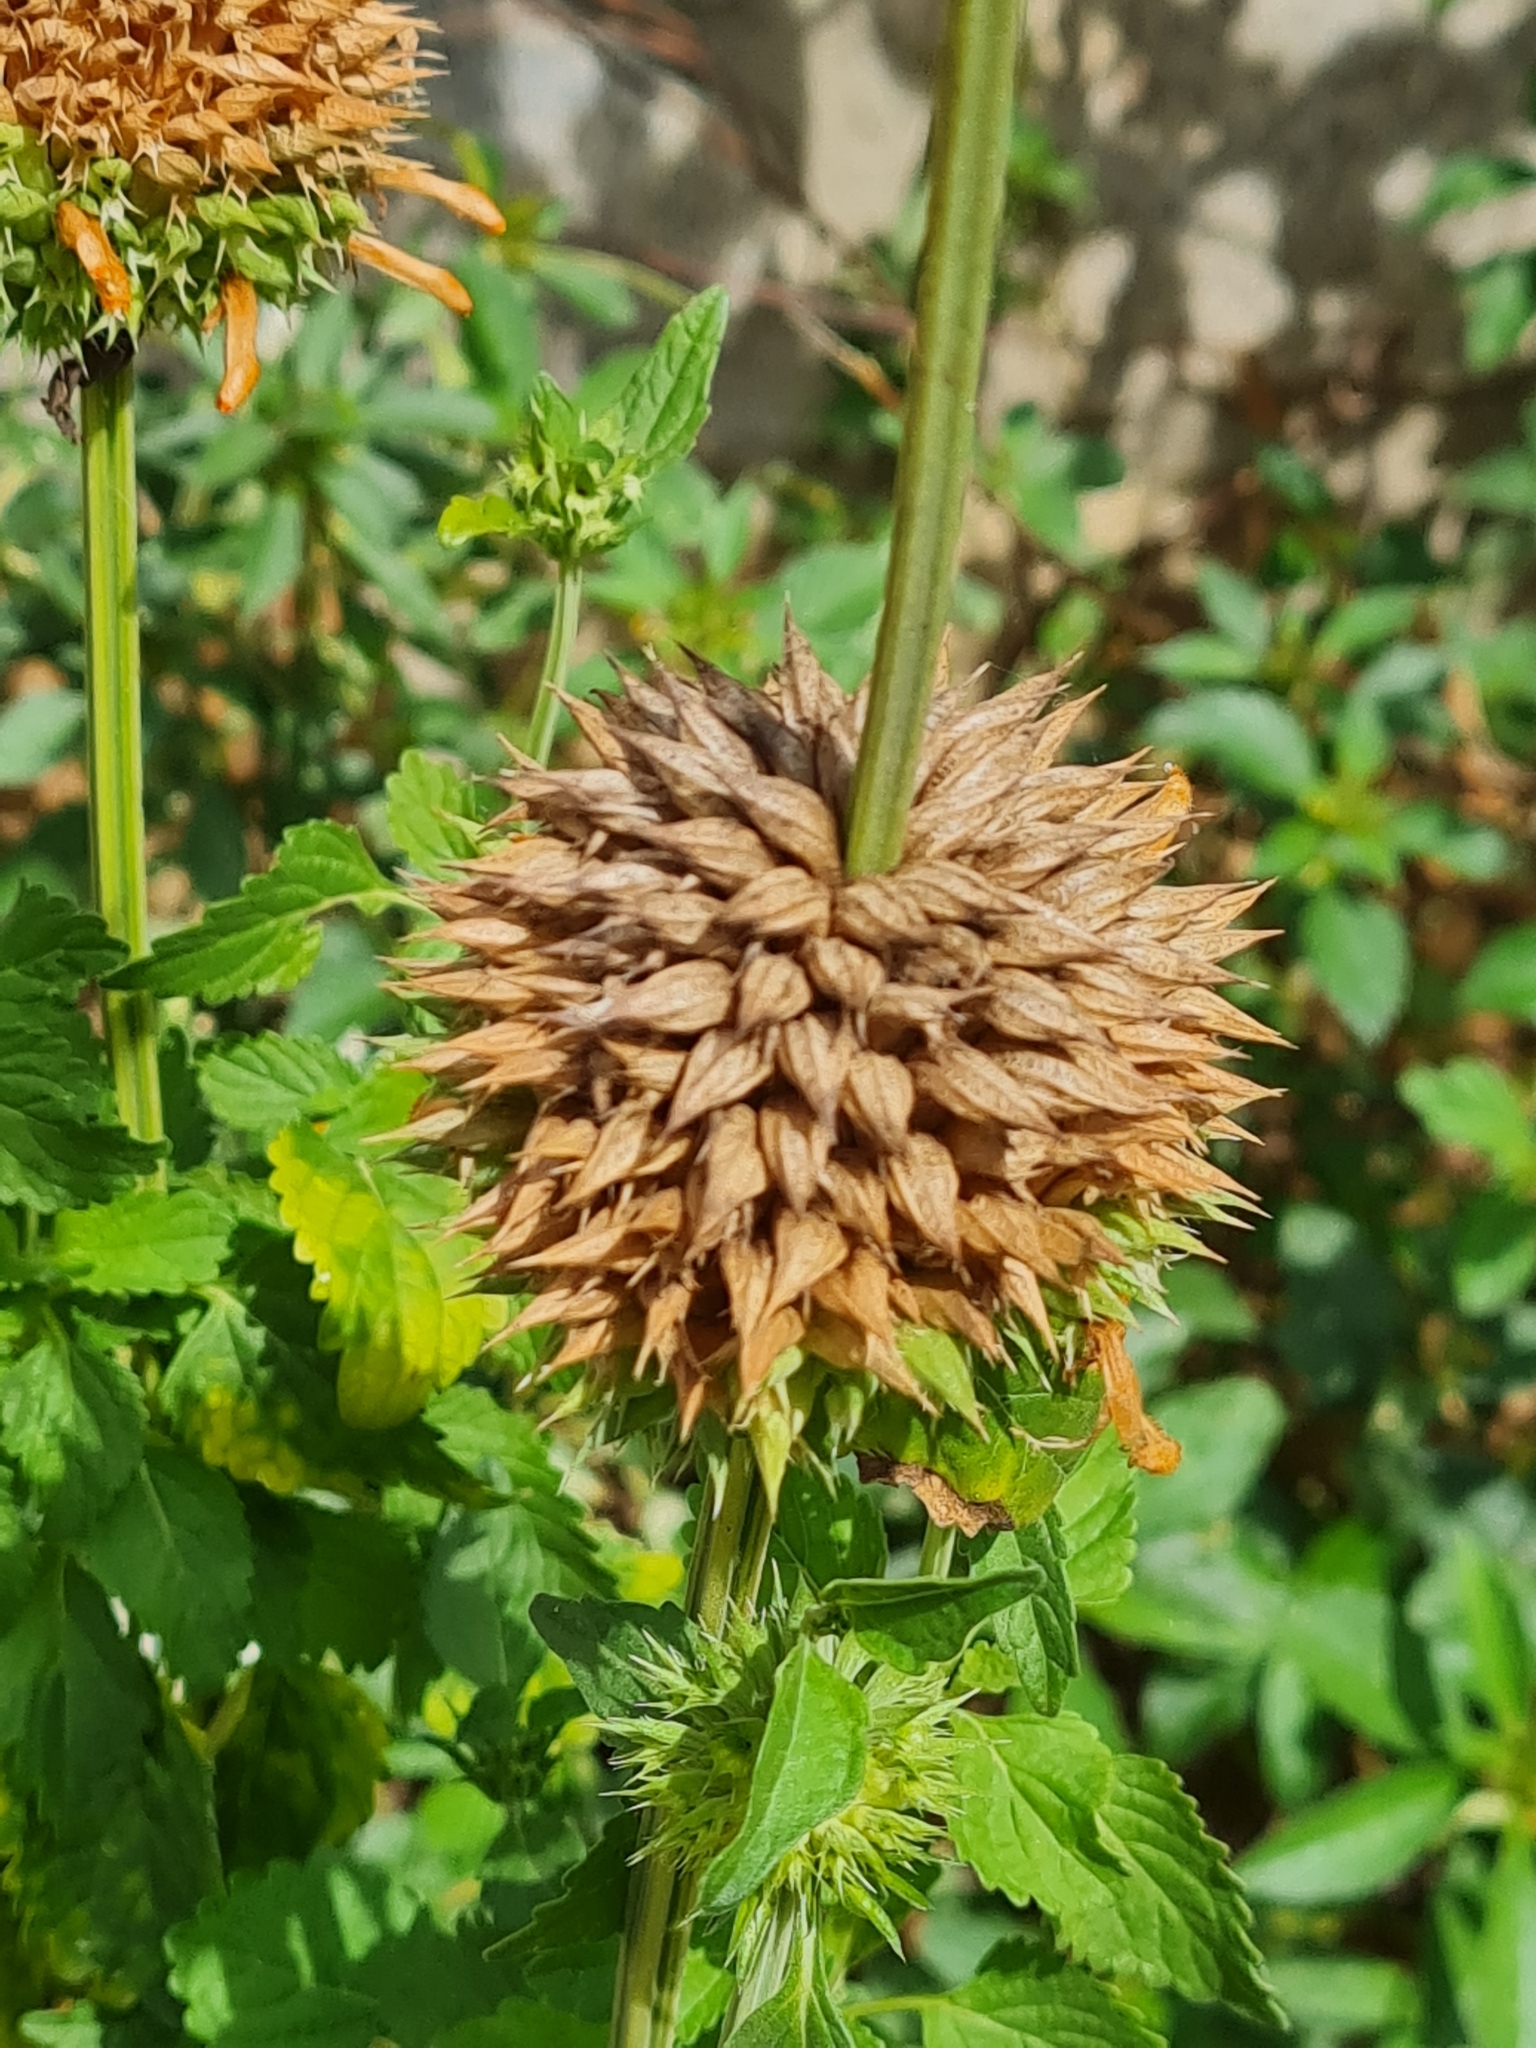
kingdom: Plantae
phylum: Tracheophyta
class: Magnoliopsida
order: Lamiales
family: Lamiaceae
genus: Leonotis
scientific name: Leonotis nepetifolia
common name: Christmas candlestick
